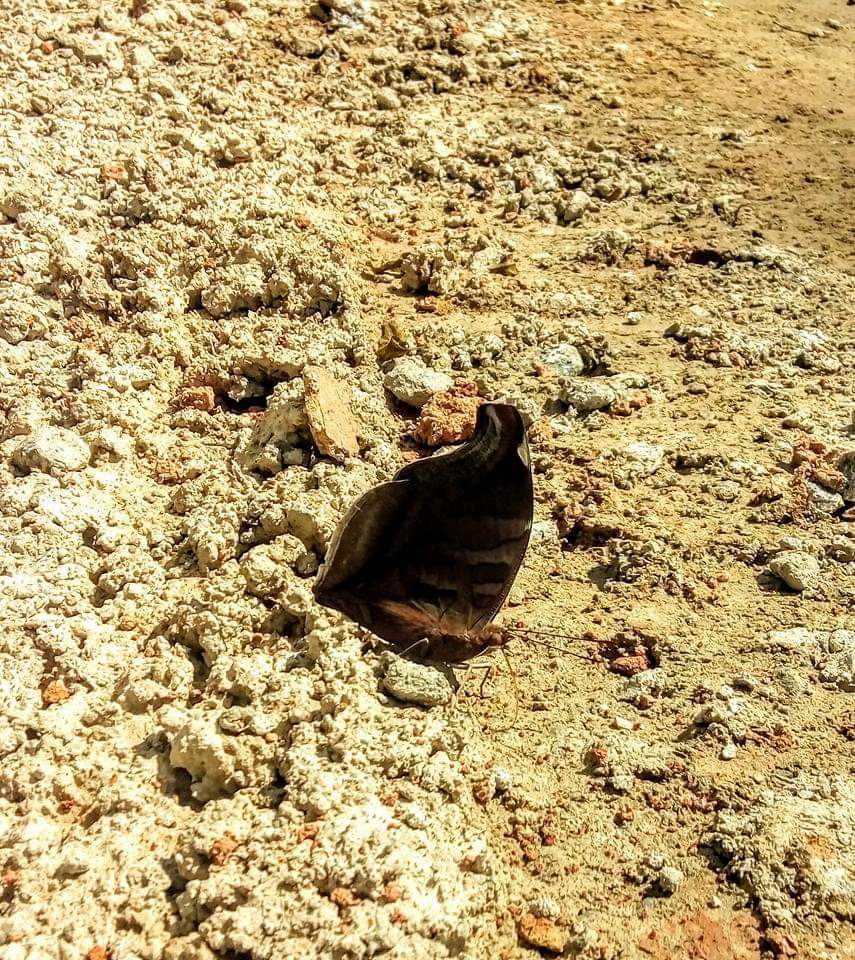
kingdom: Animalia
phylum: Arthropoda
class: Insecta
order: Lepidoptera
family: Nymphalidae
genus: Historis
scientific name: Historis odius
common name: Orion cecropian
